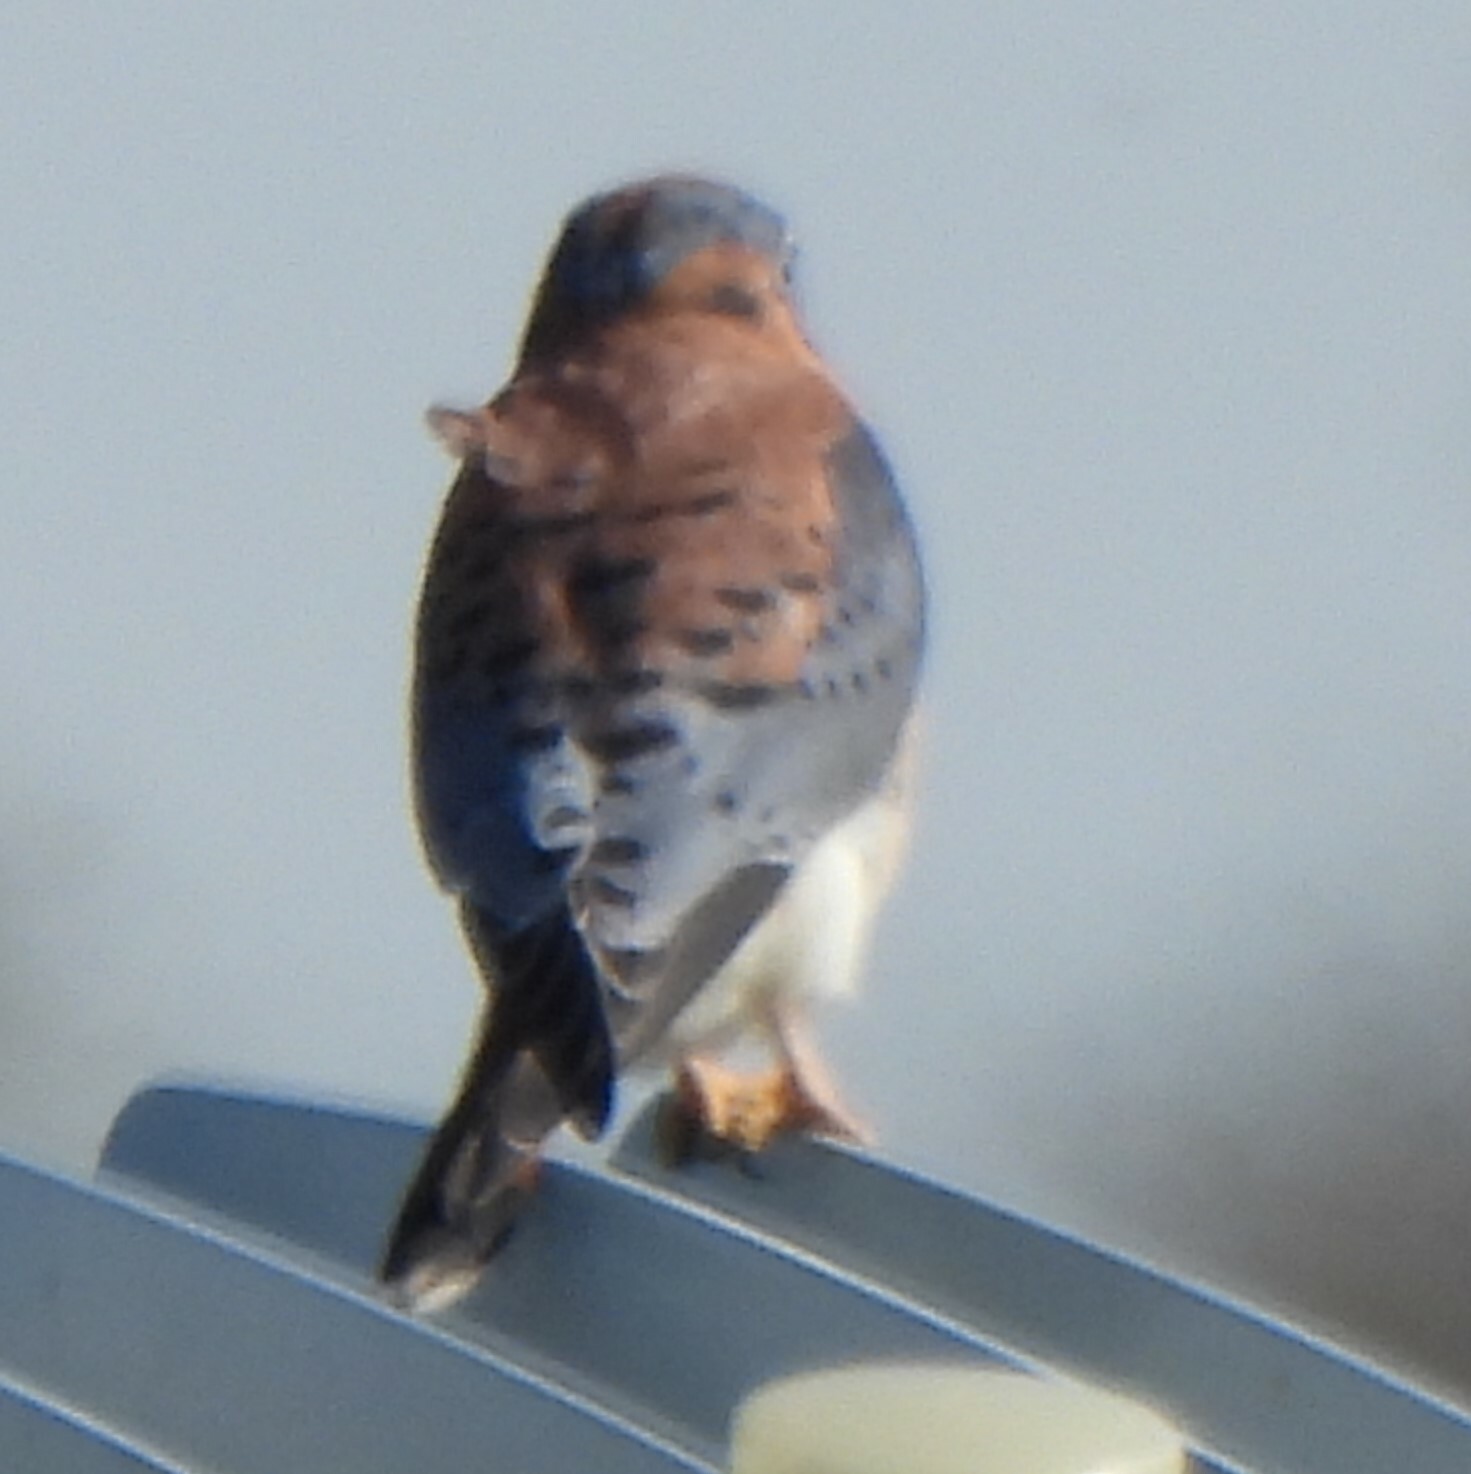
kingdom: Animalia
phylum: Chordata
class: Aves
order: Falconiformes
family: Falconidae
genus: Falco
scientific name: Falco sparverius
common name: American kestrel
